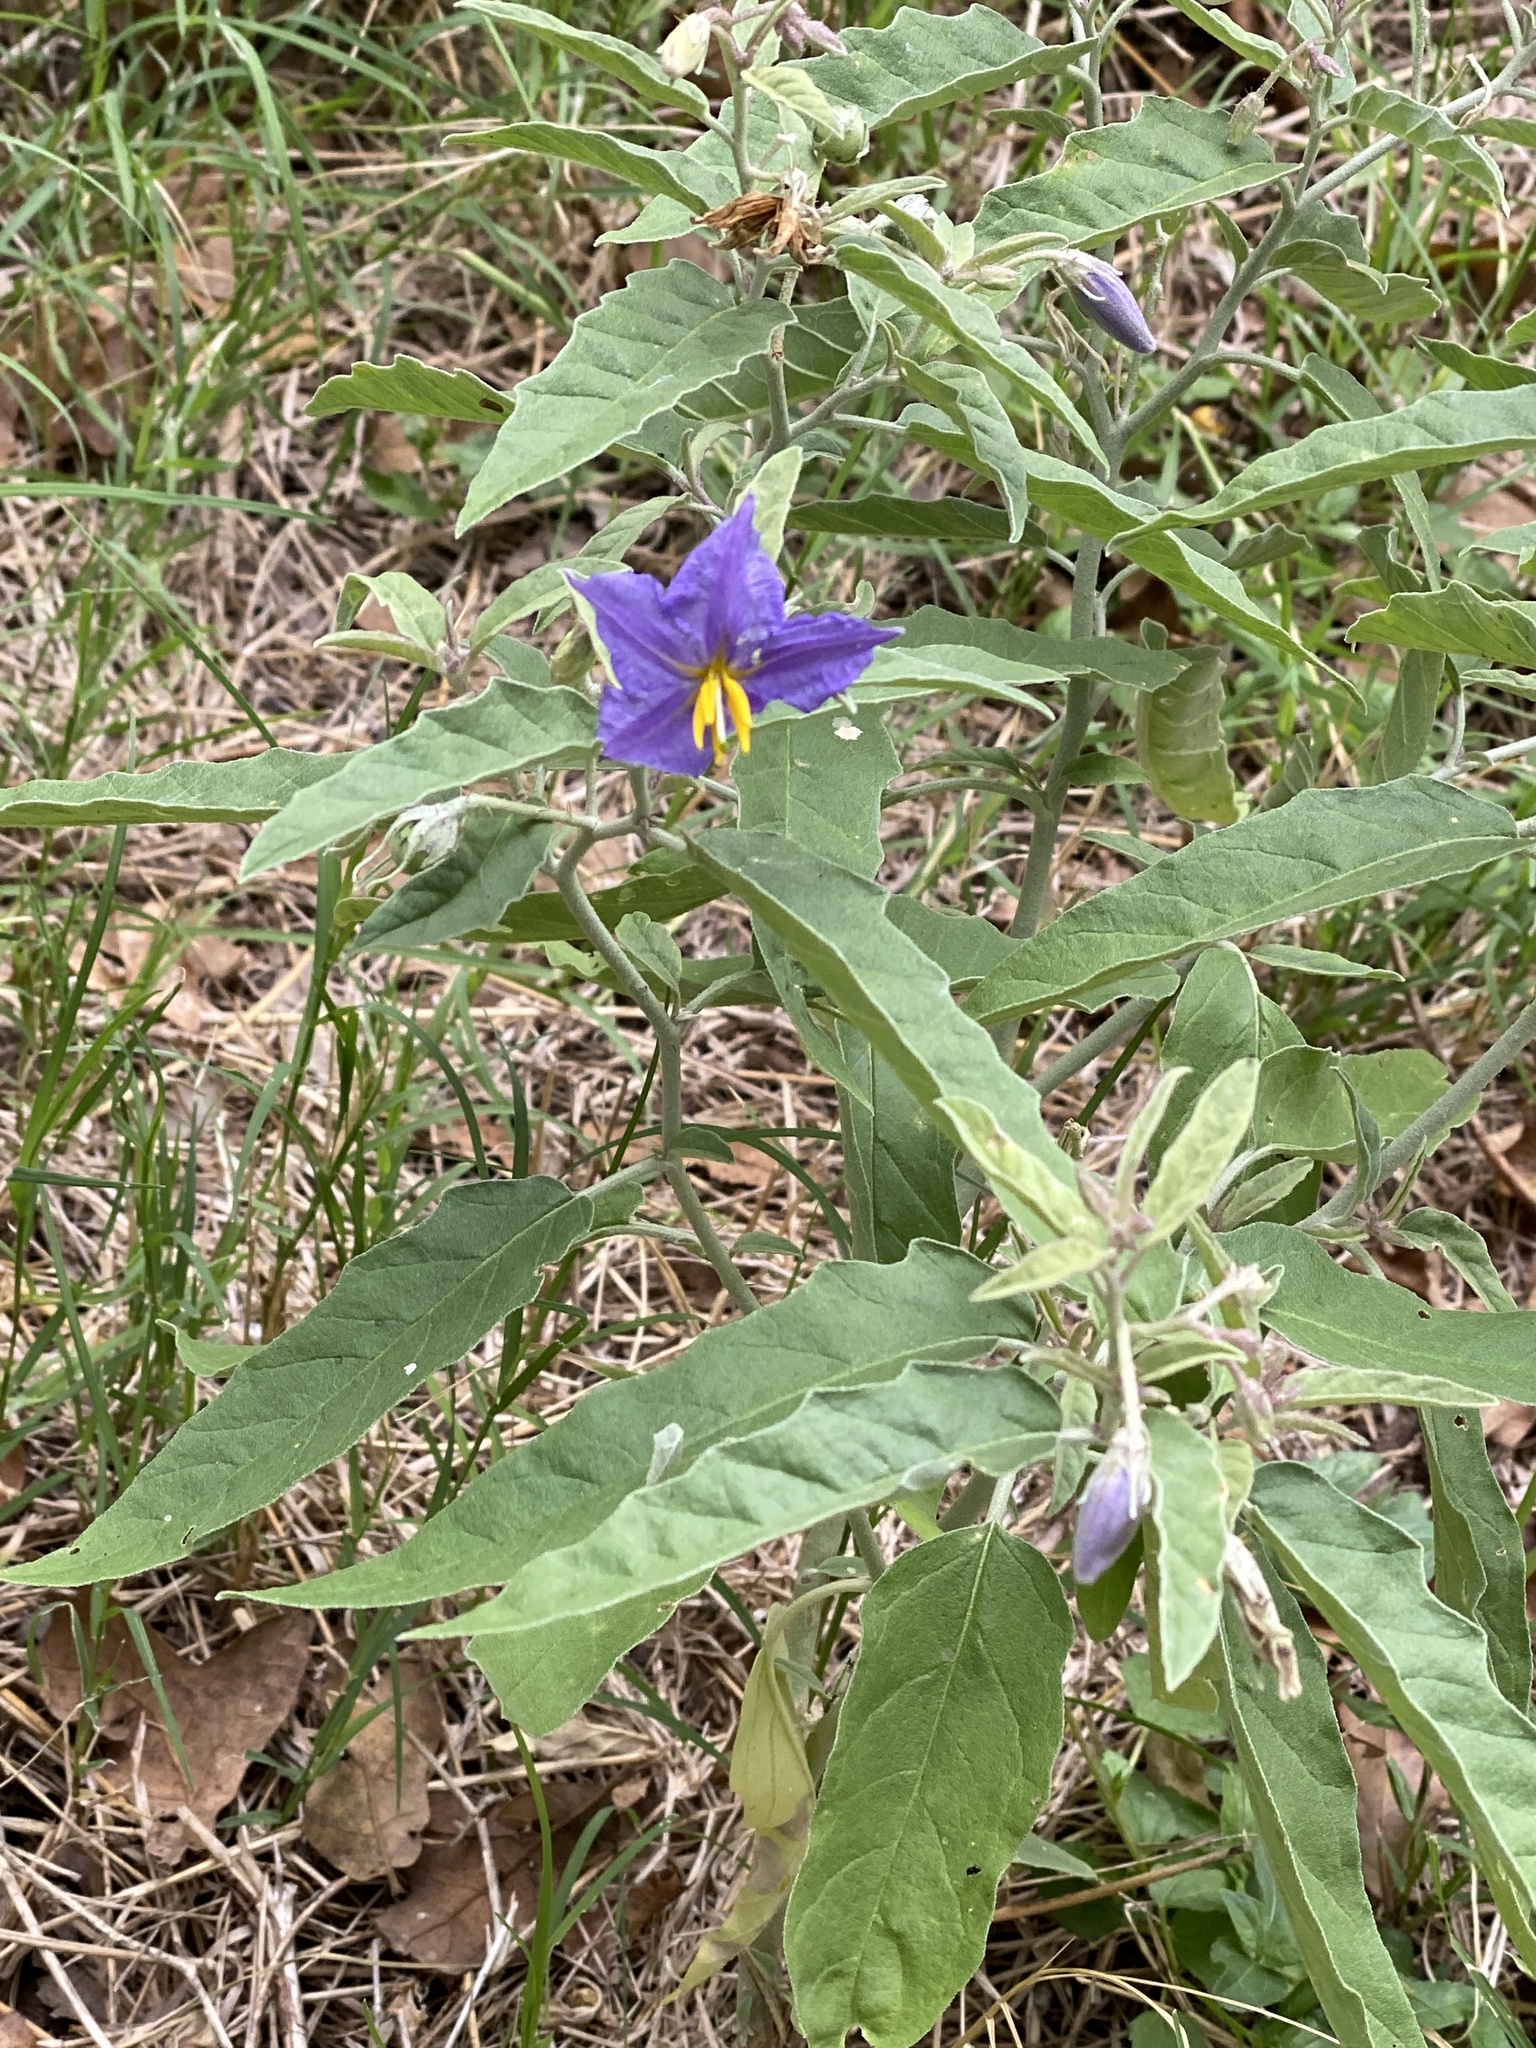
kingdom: Plantae
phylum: Tracheophyta
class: Magnoliopsida
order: Solanales
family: Solanaceae
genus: Solanum
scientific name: Solanum elaeagnifolium
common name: Silverleaf nightshade
